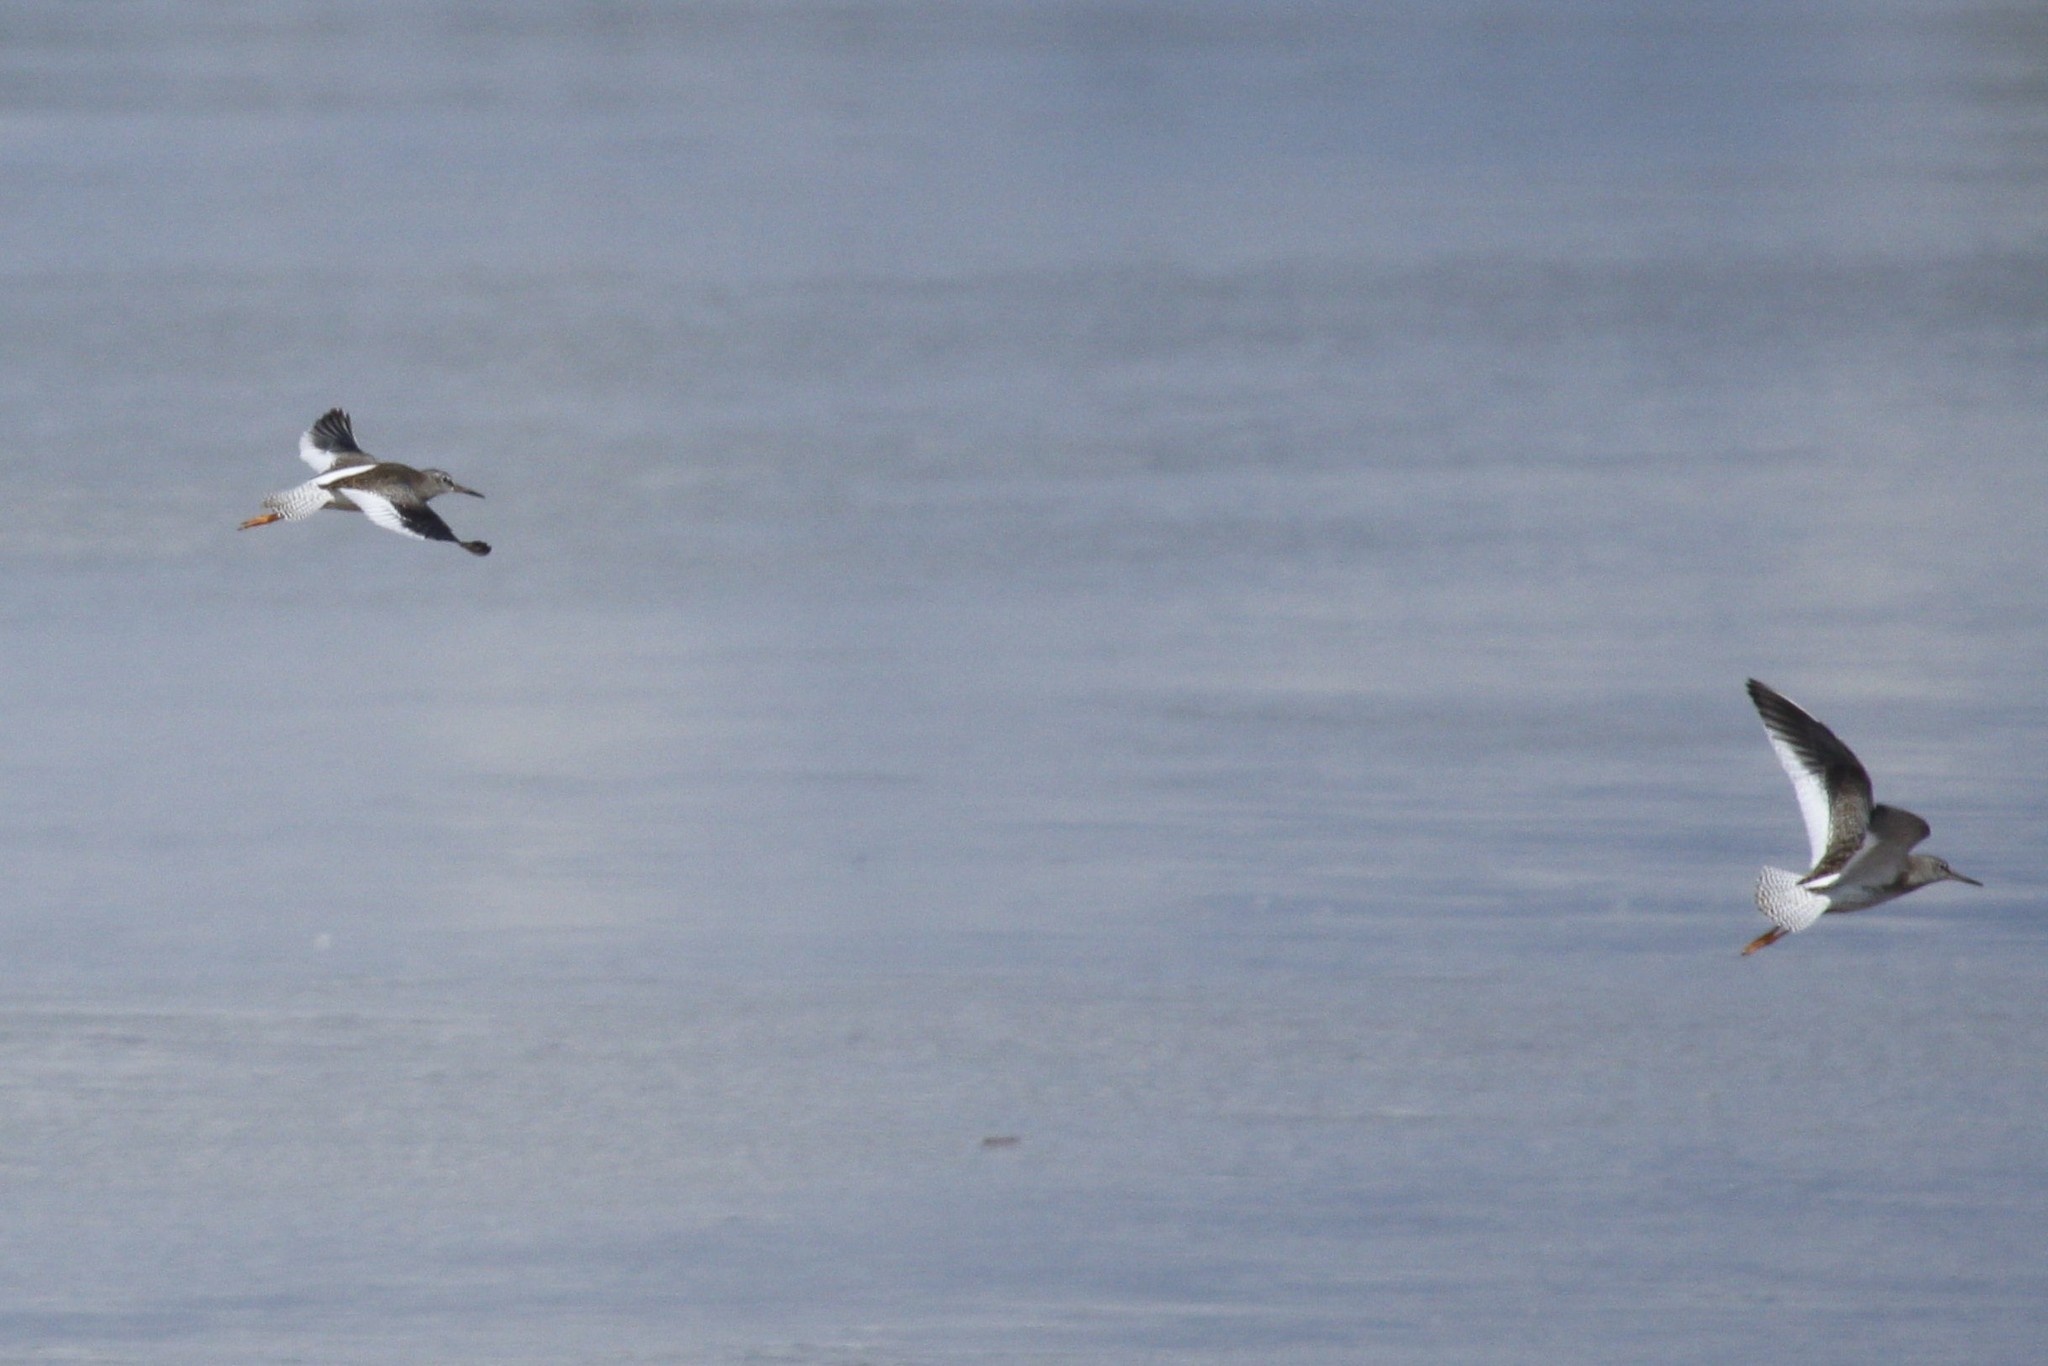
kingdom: Animalia
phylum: Chordata
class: Aves
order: Charadriiformes
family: Scolopacidae
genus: Tringa
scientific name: Tringa totanus
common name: Common redshank
